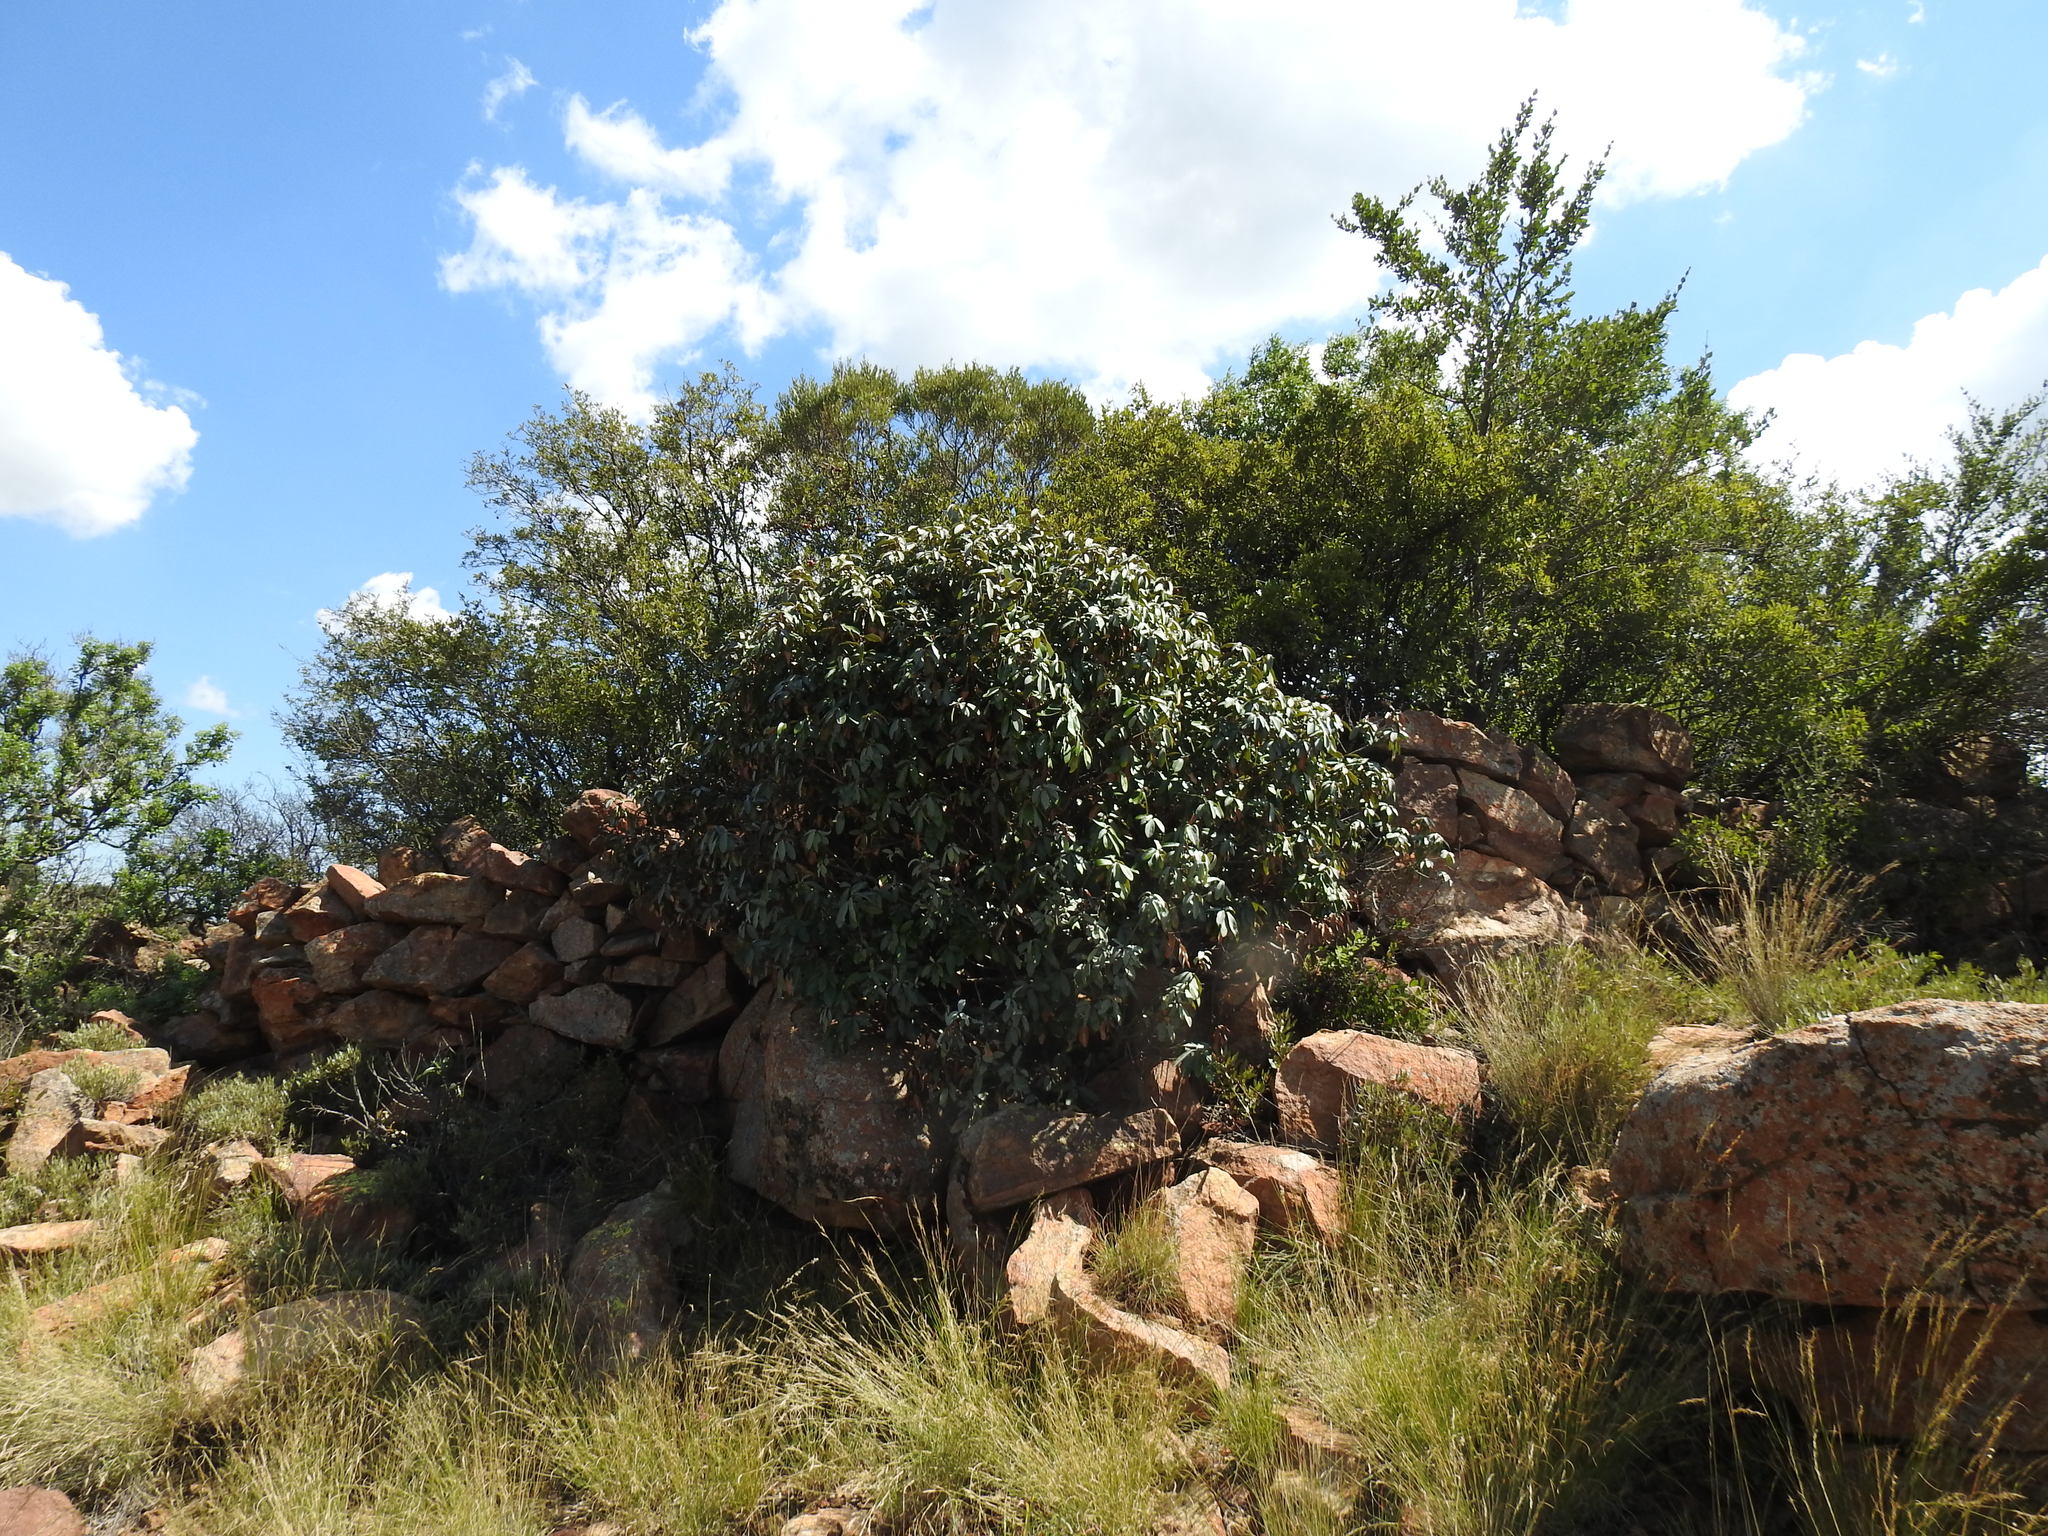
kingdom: Plantae
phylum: Tracheophyta
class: Magnoliopsida
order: Ericales
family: Sapotaceae
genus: Englerophytum
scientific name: Englerophytum magalismontanum
